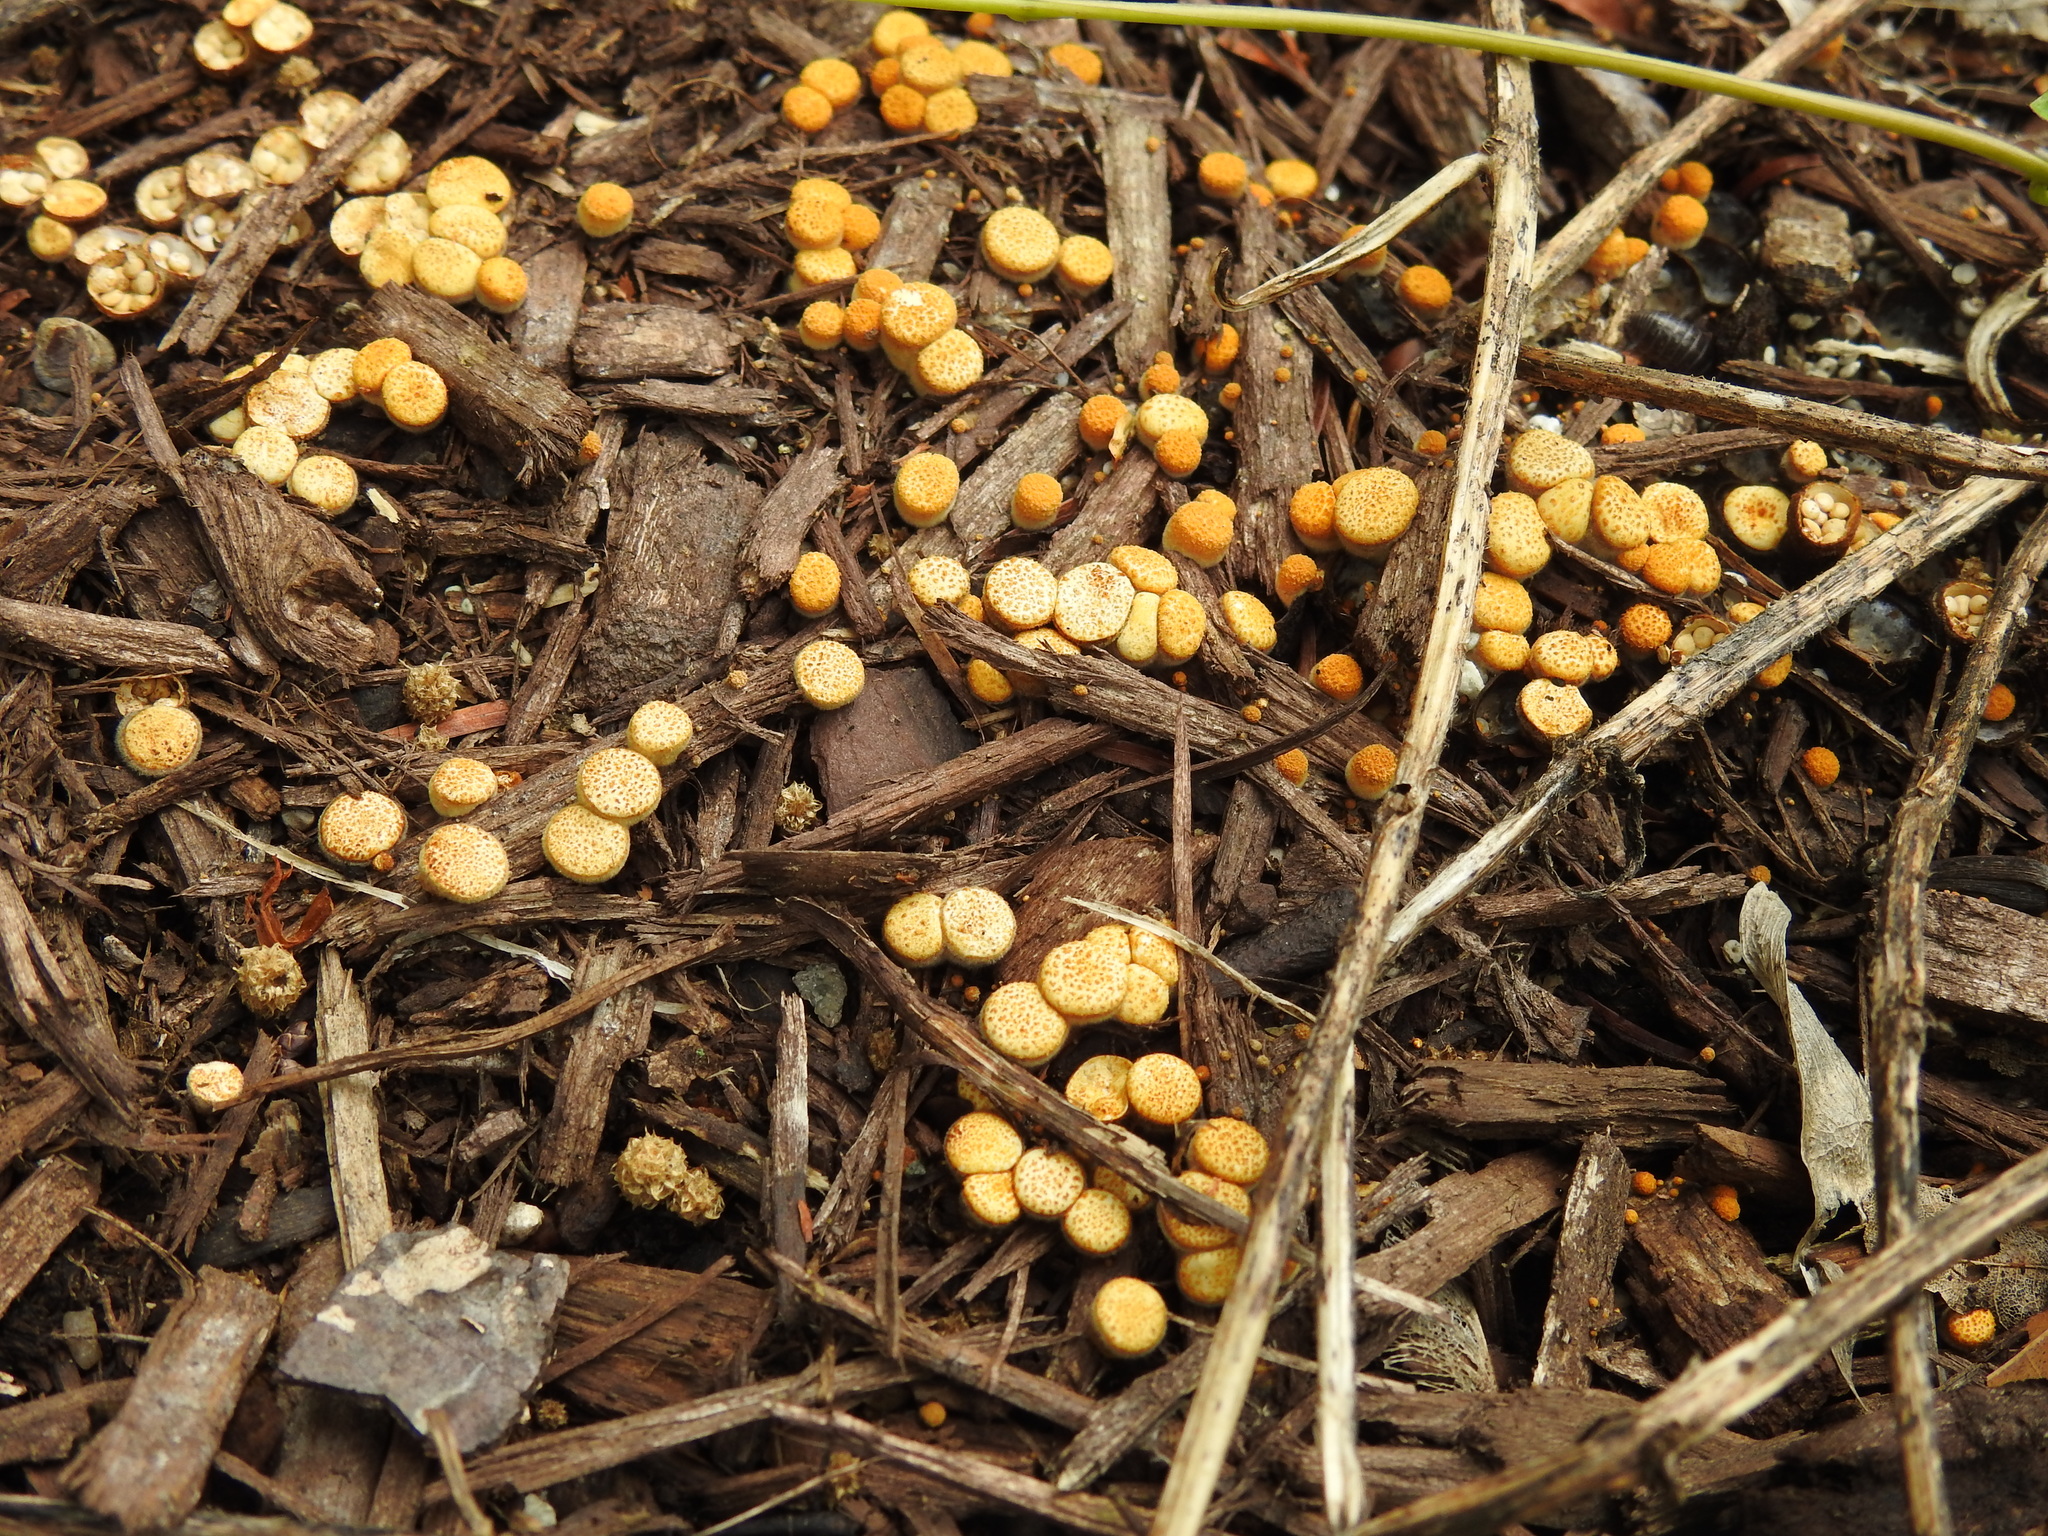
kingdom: Fungi
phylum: Basidiomycota
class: Agaricomycetes
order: Agaricales
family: Nidulariaceae
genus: Crucibulum
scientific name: Crucibulum laeve
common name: Common bird's nest
